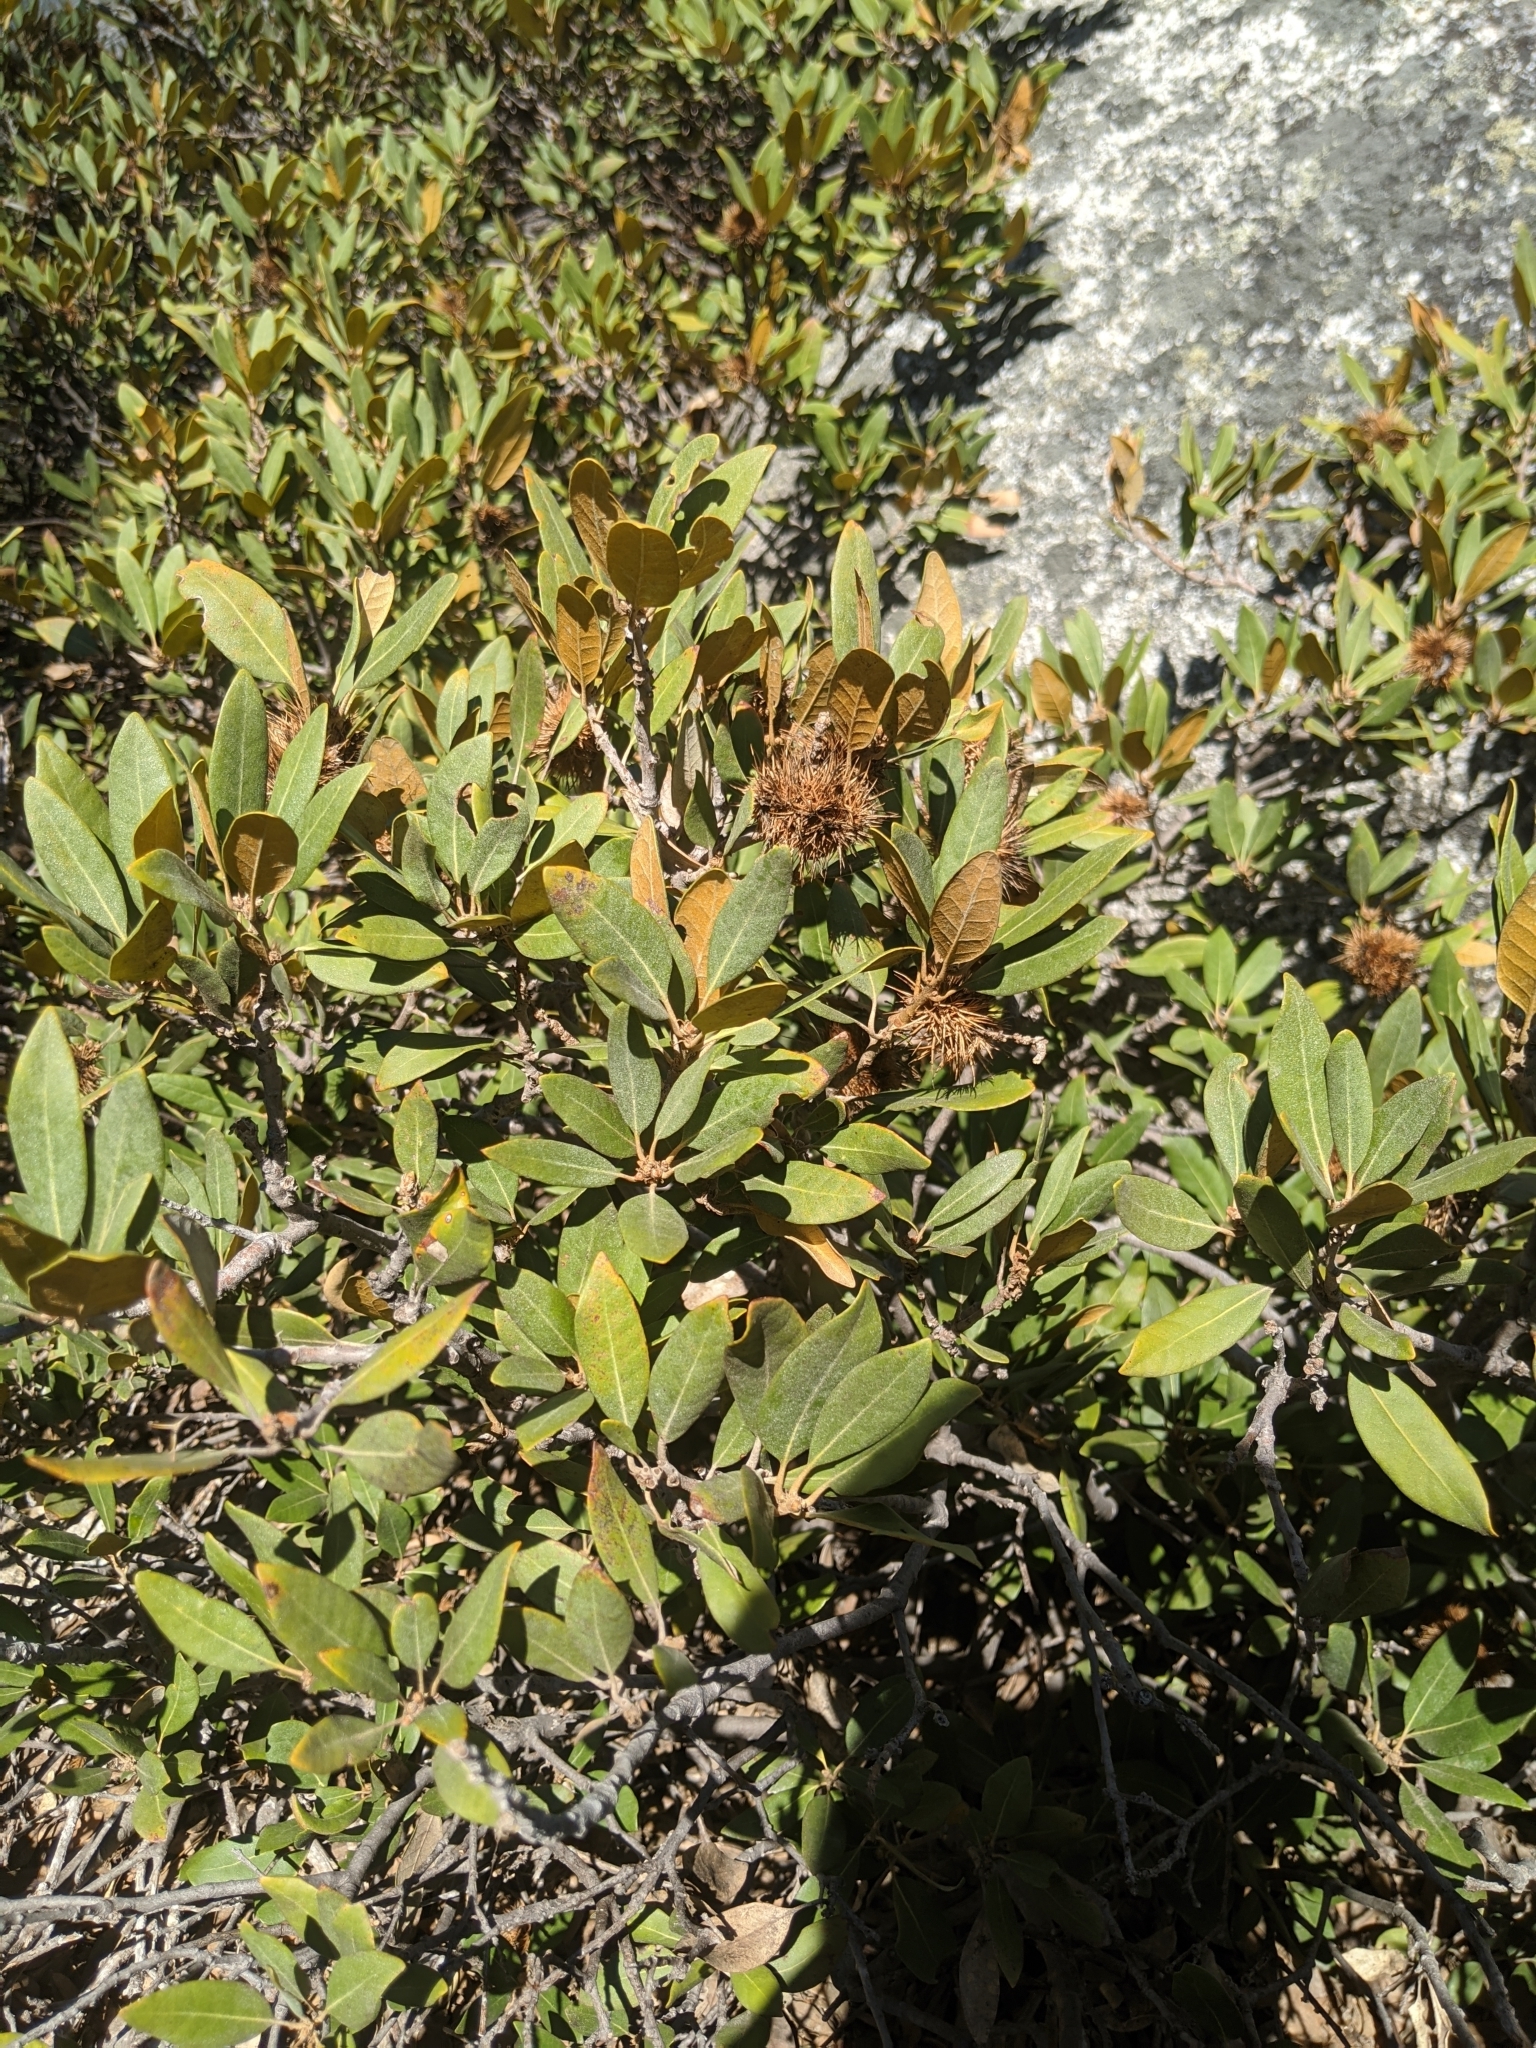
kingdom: Plantae
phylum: Tracheophyta
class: Magnoliopsida
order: Fagales
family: Fagaceae
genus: Chrysolepis
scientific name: Chrysolepis sempervirens
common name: Bush chinquapin
